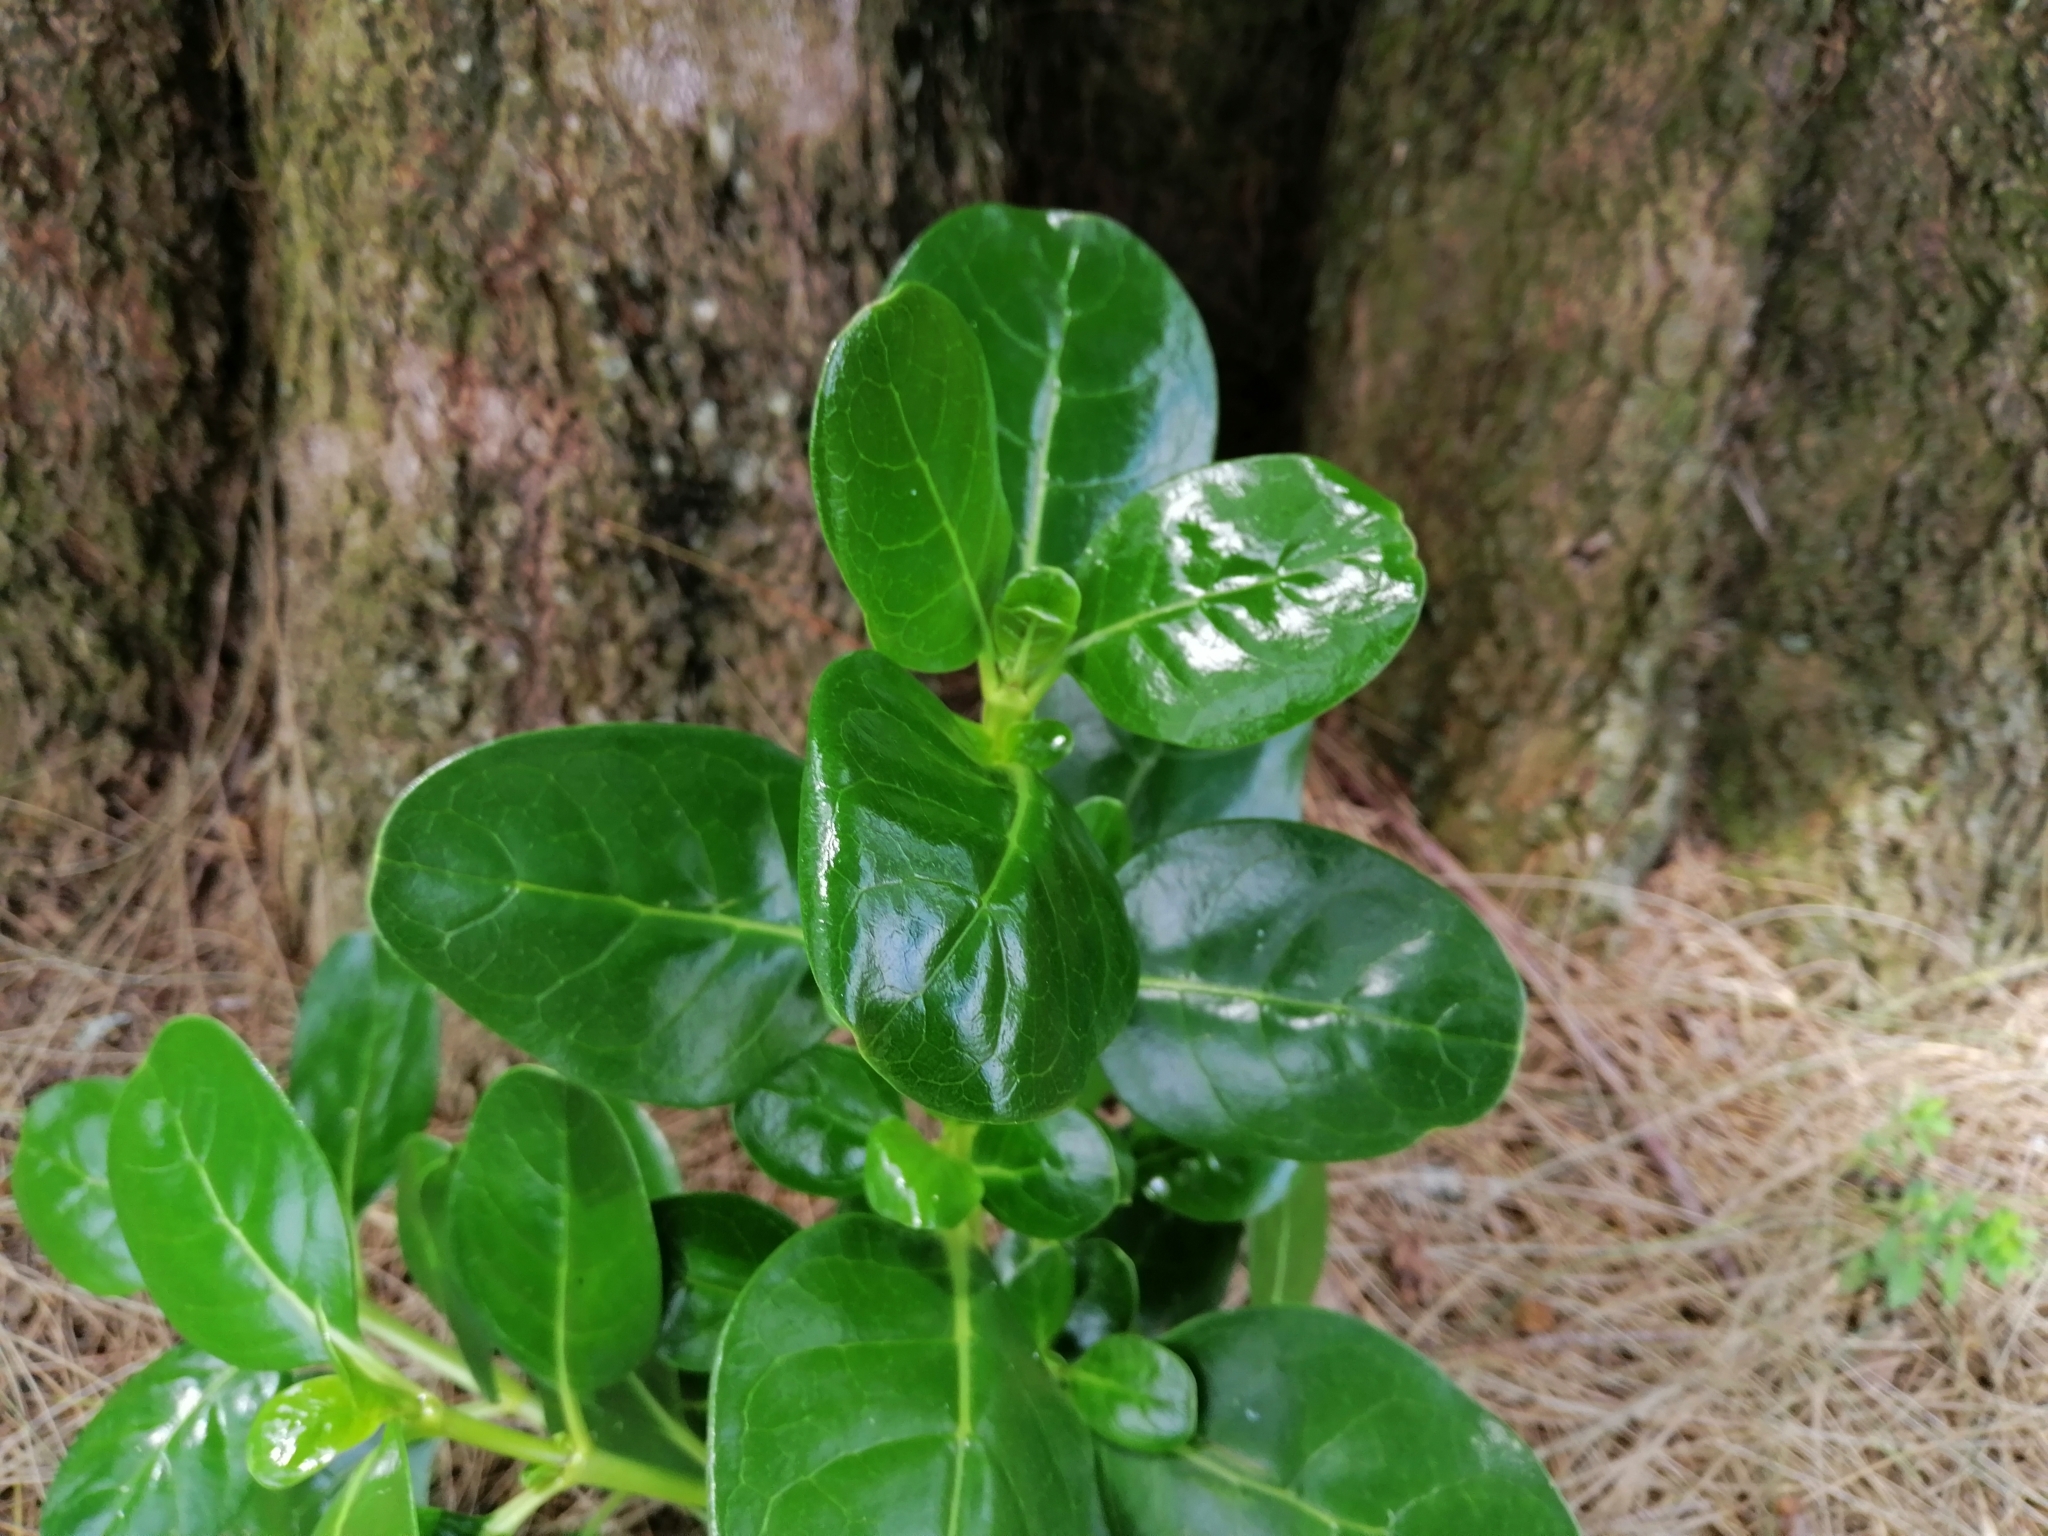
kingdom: Plantae
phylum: Tracheophyta
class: Magnoliopsida
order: Gentianales
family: Rubiaceae
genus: Coprosma
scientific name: Coprosma repens
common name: Tree bedstraw
